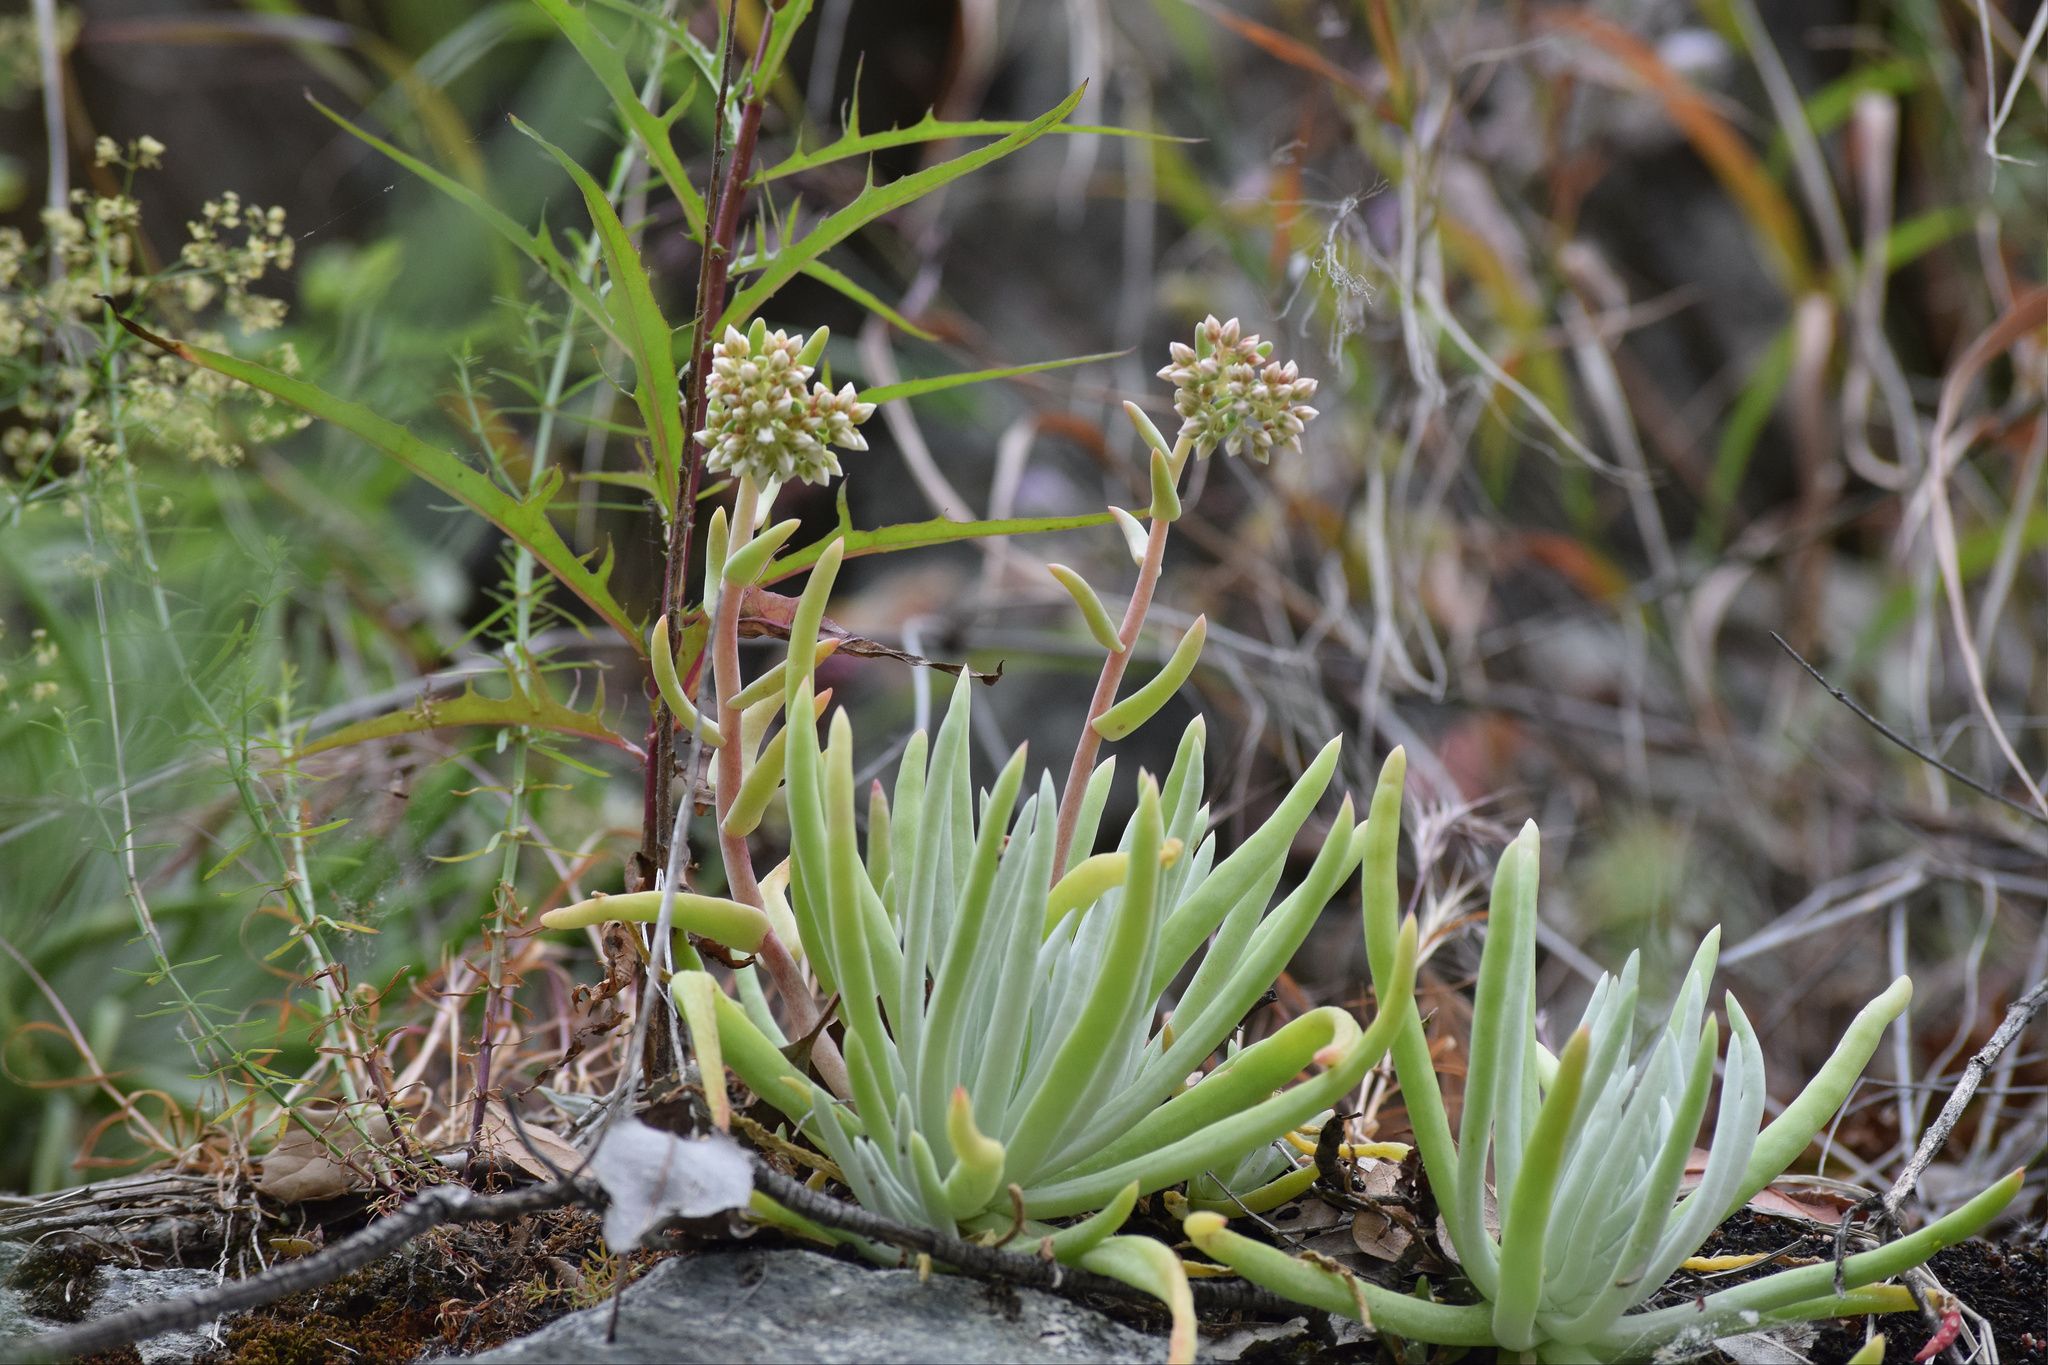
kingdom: Plantae
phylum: Tracheophyta
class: Magnoliopsida
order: Saxifragales
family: Crassulaceae
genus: Dudleya
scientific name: Dudleya densiflora
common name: San gabriel mountains dudleya
